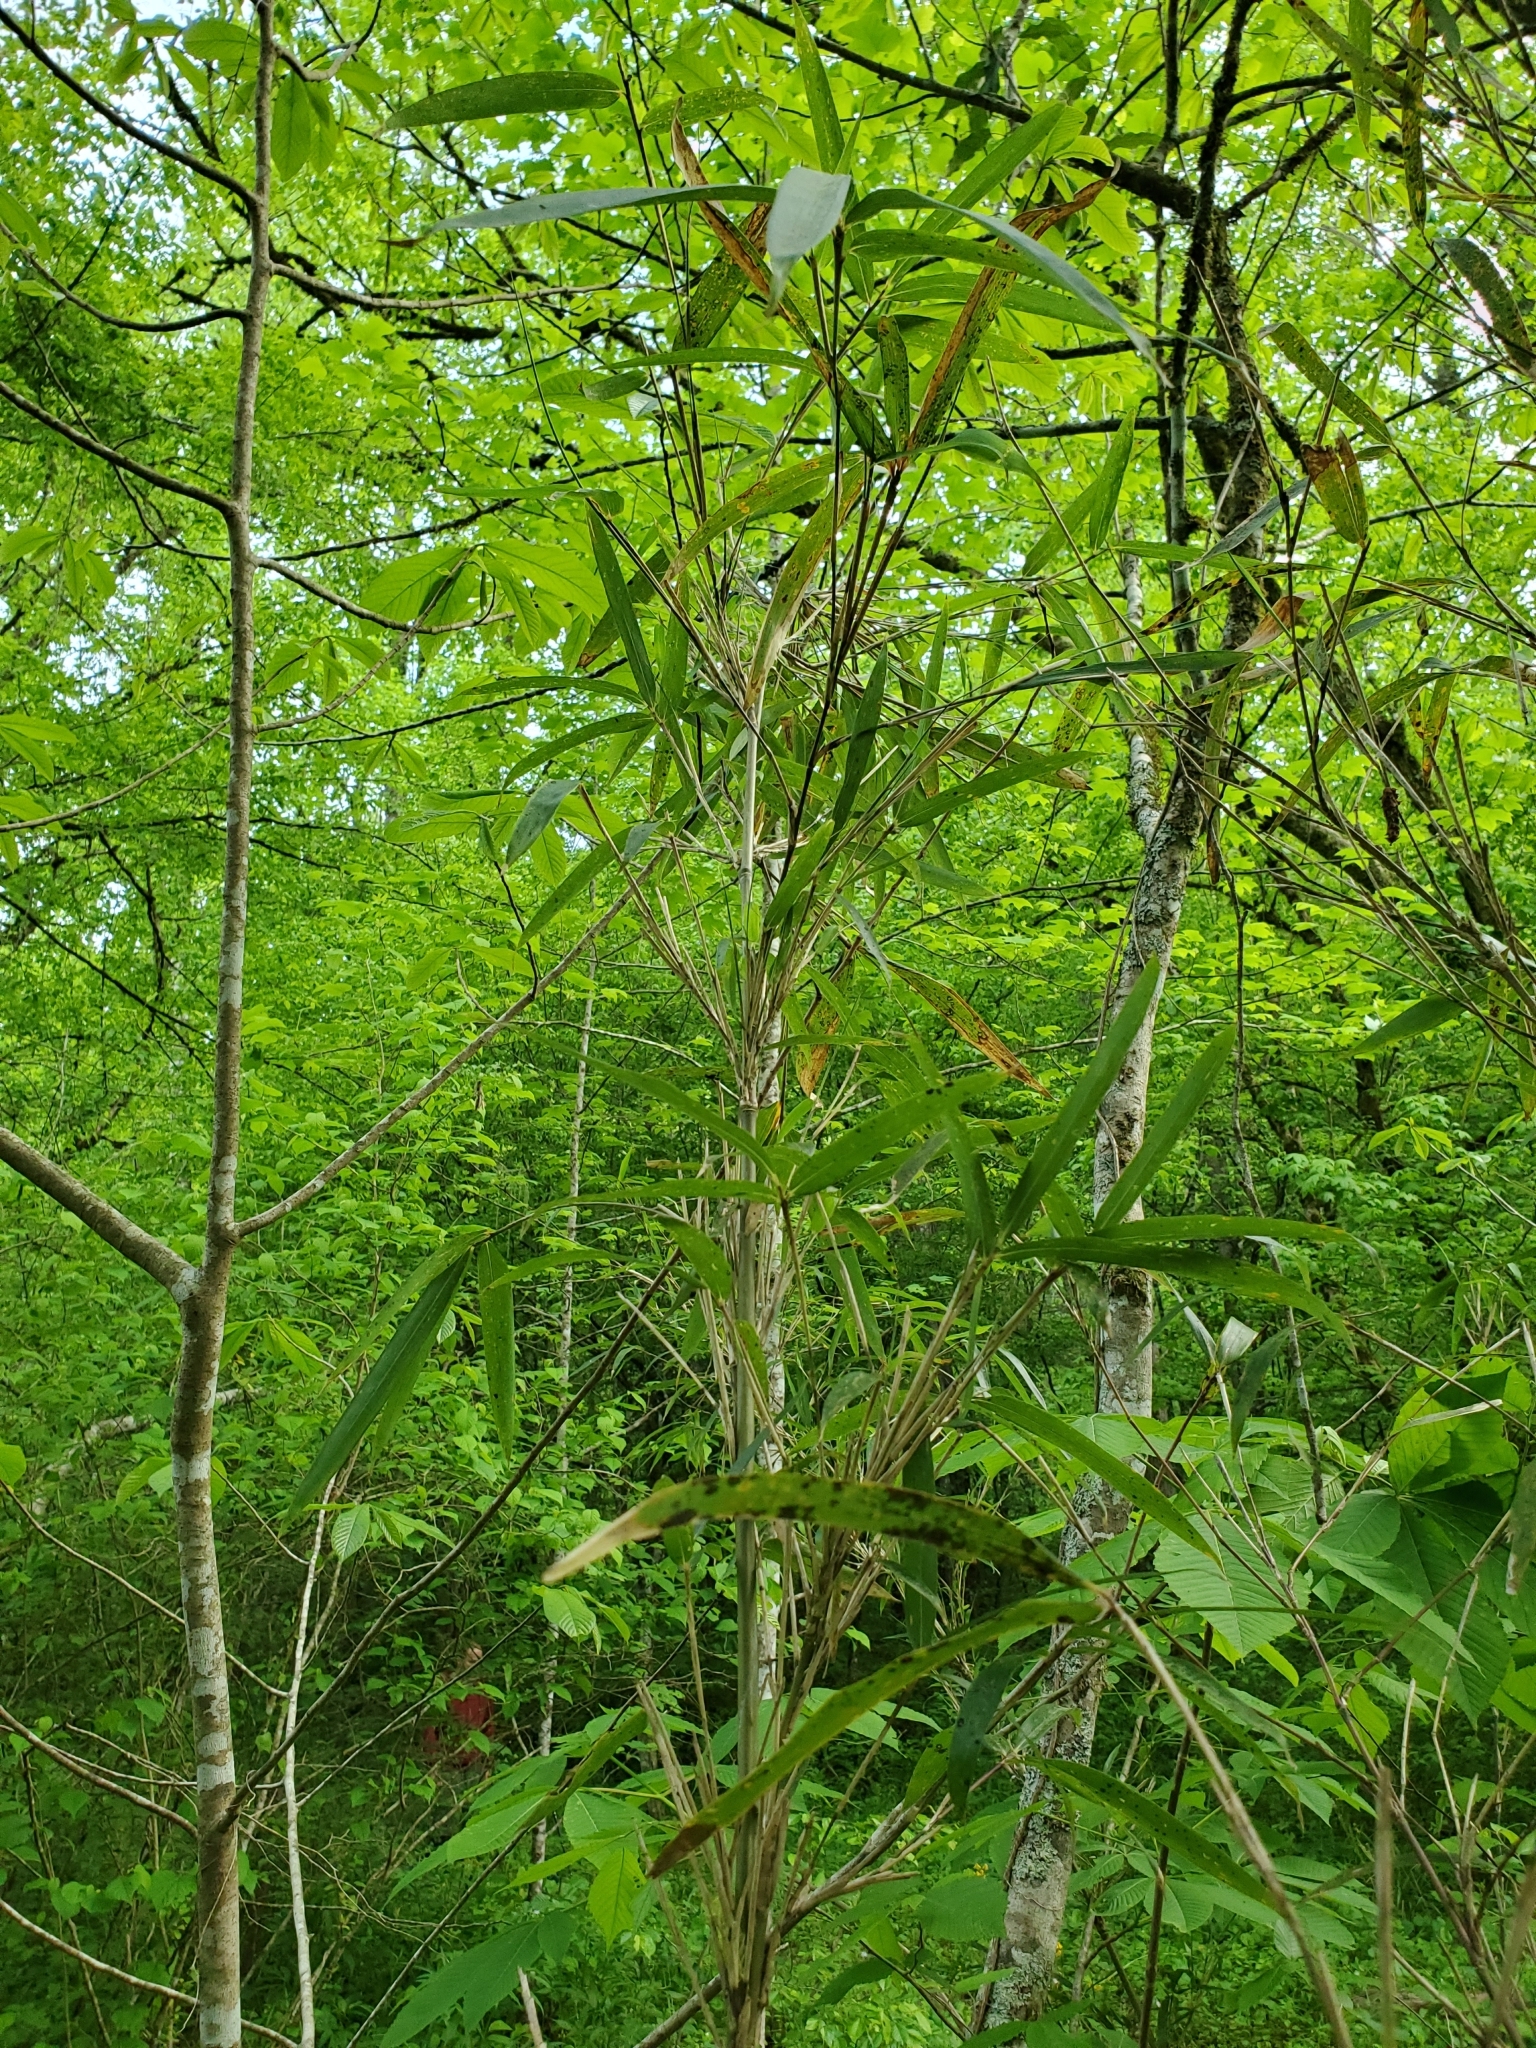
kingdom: Plantae
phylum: Tracheophyta
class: Liliopsida
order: Poales
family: Poaceae
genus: Arundinaria
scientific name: Arundinaria gigantea
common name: Giant cane
